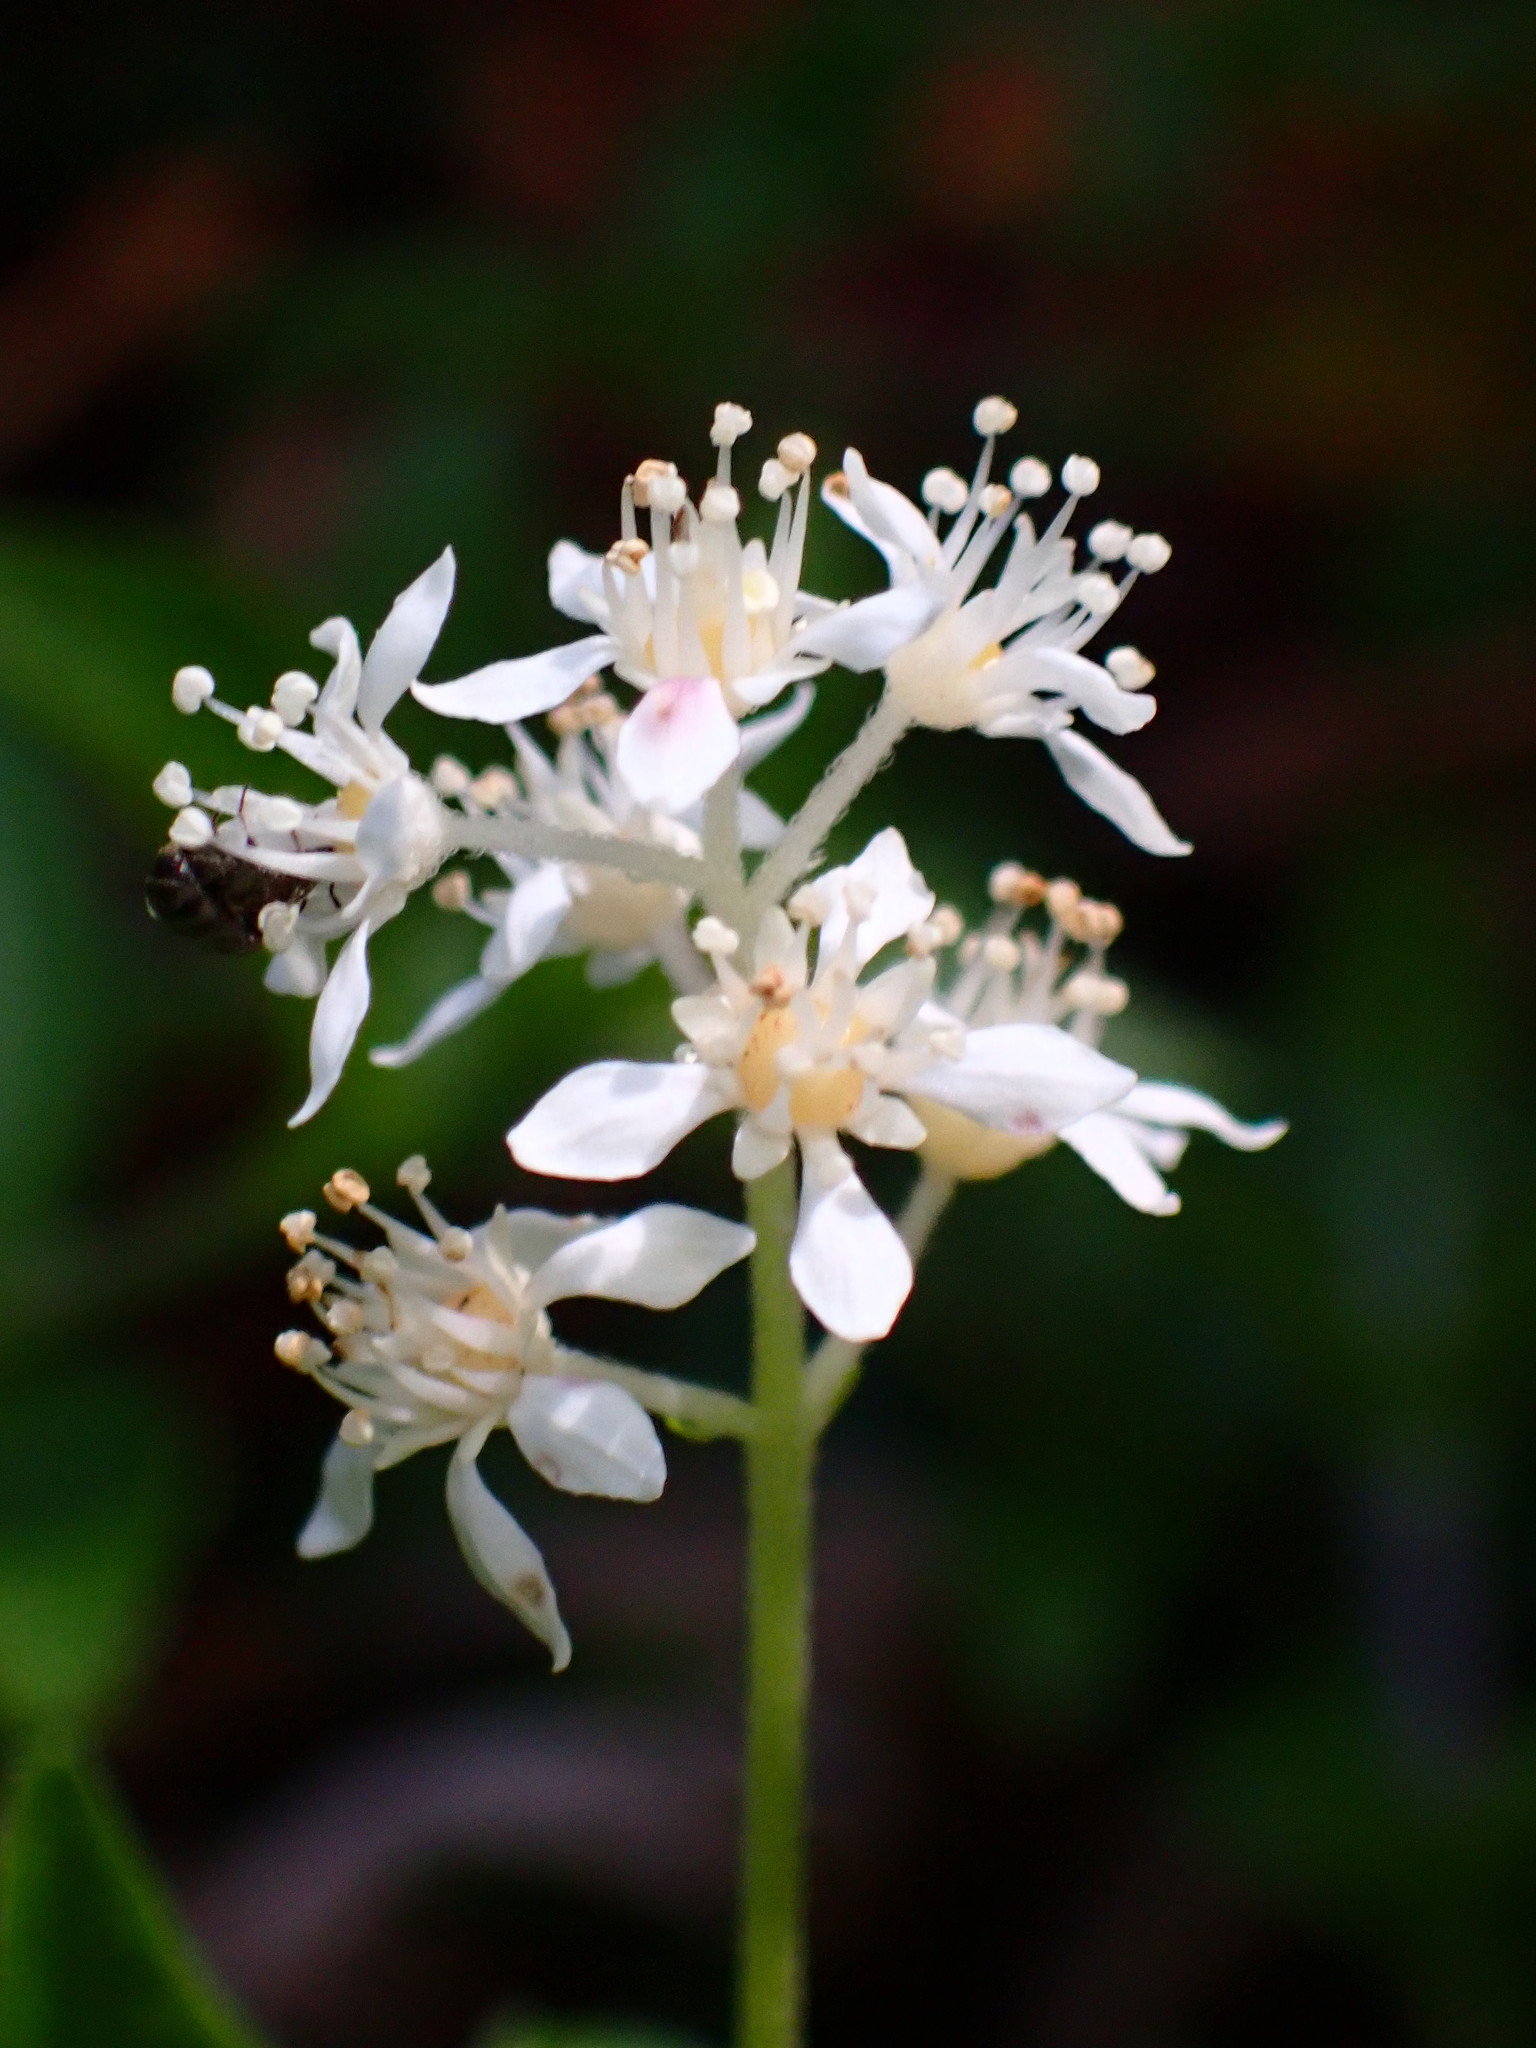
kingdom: Plantae
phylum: Tracheophyta
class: Magnoliopsida
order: Cornales
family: Hydrangeaceae
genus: Whipplea
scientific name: Whipplea modesta
